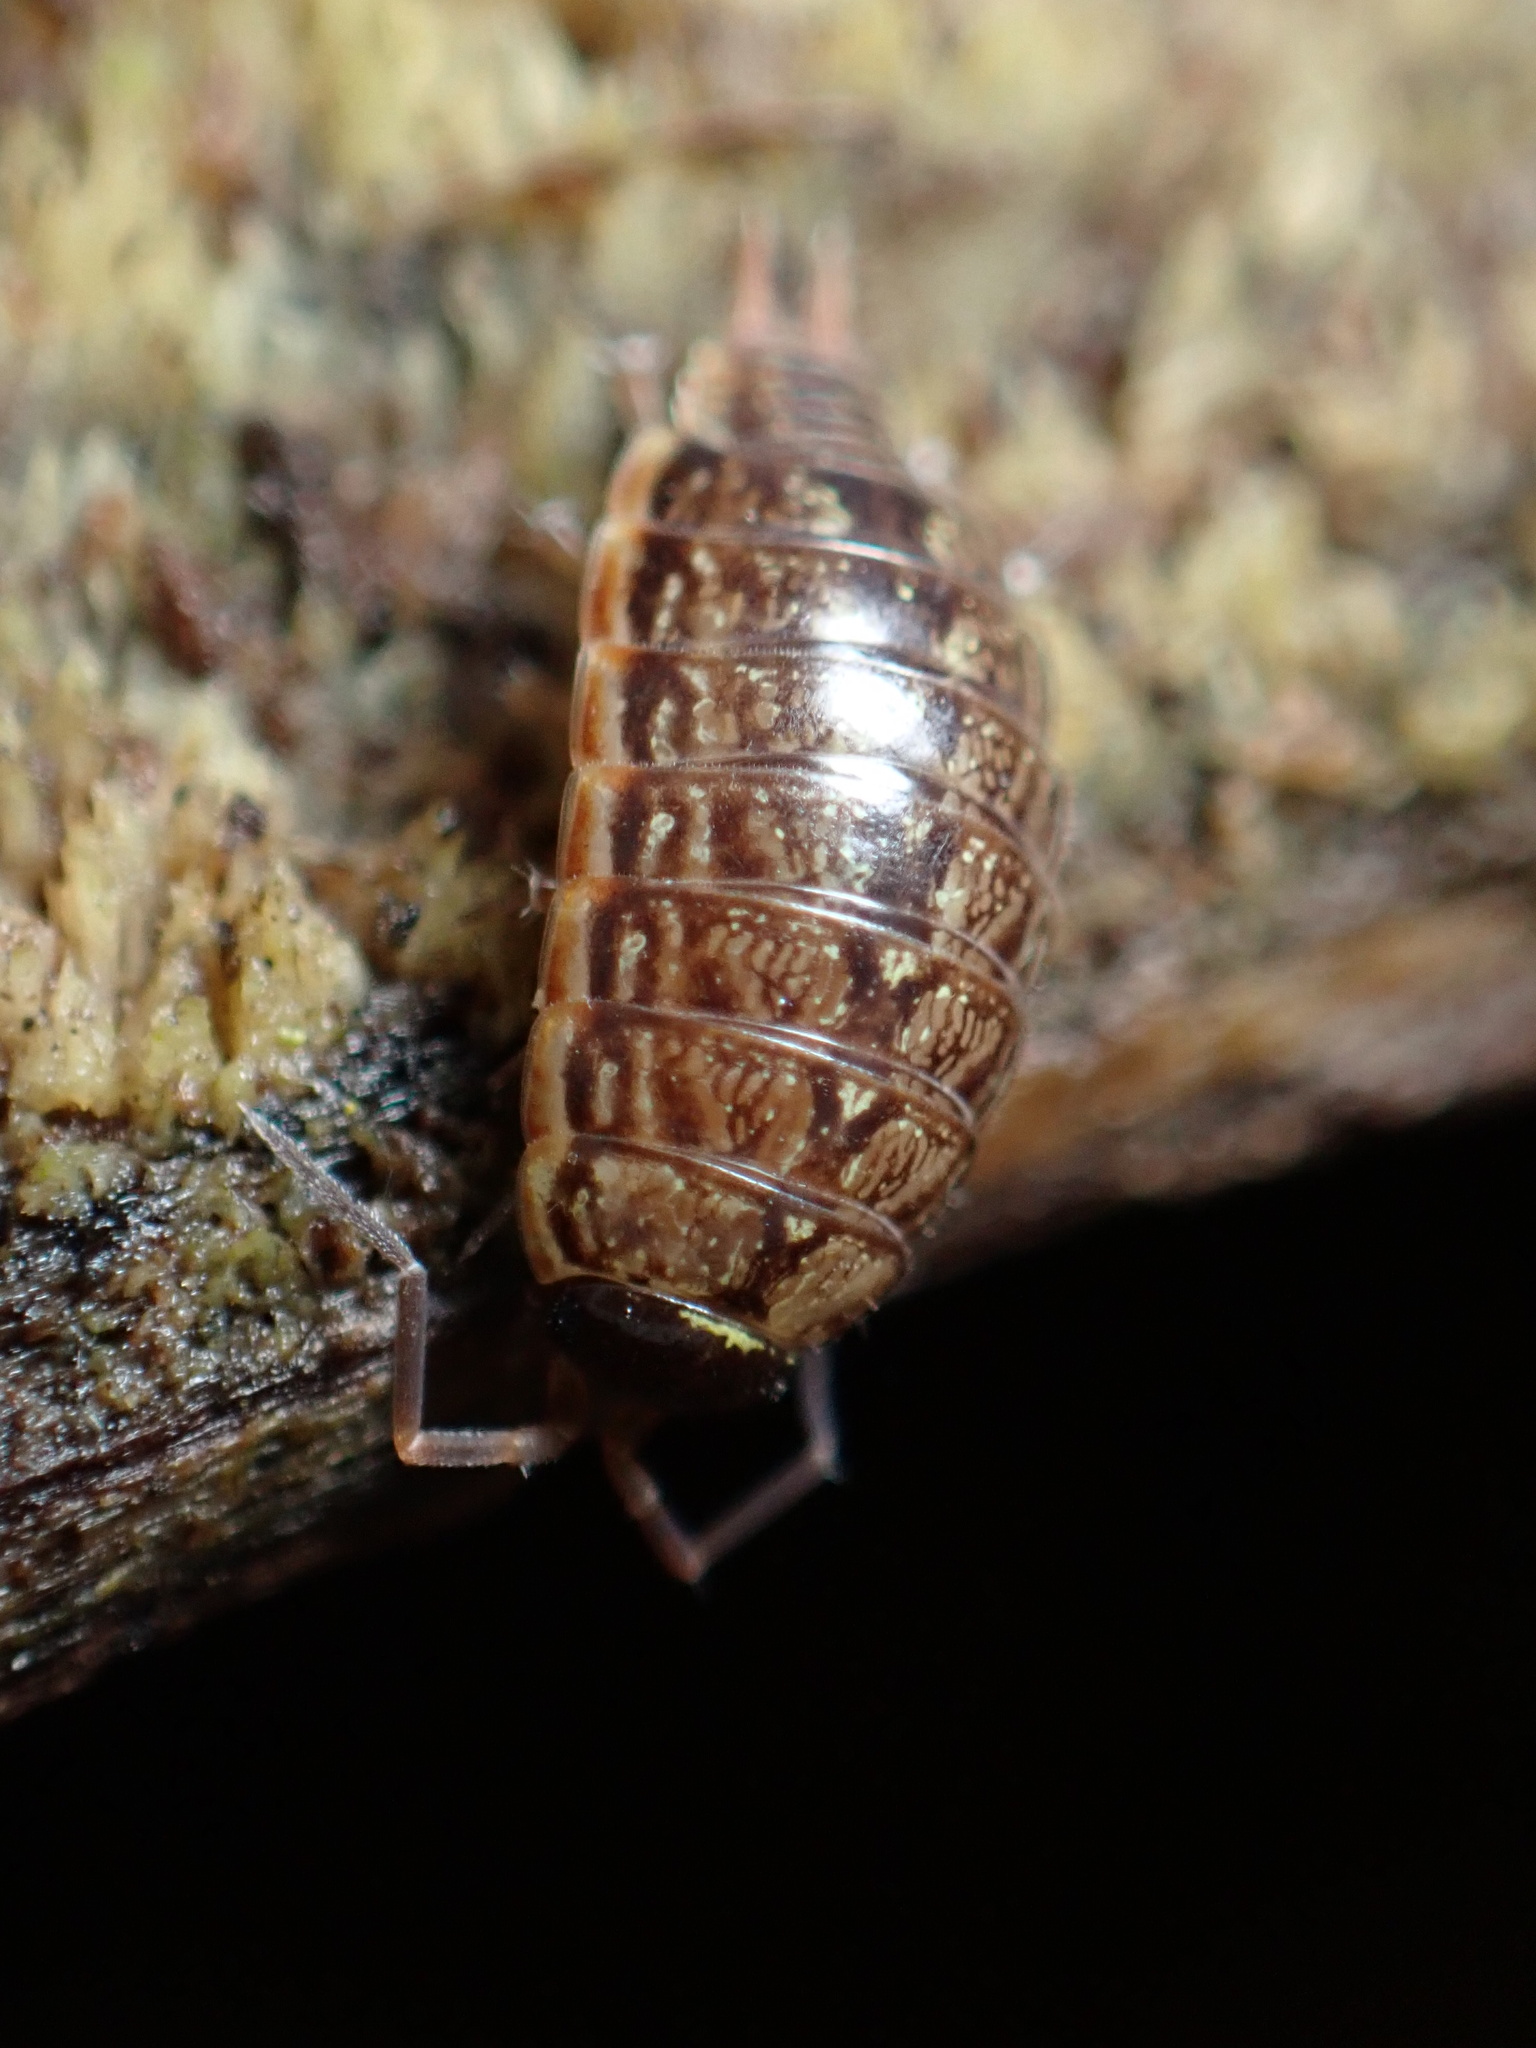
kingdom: Animalia
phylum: Arthropoda
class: Malacostraca
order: Isopoda
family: Philosciidae
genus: Philoscia
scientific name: Philoscia muscorum
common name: Common striped woodlouse
